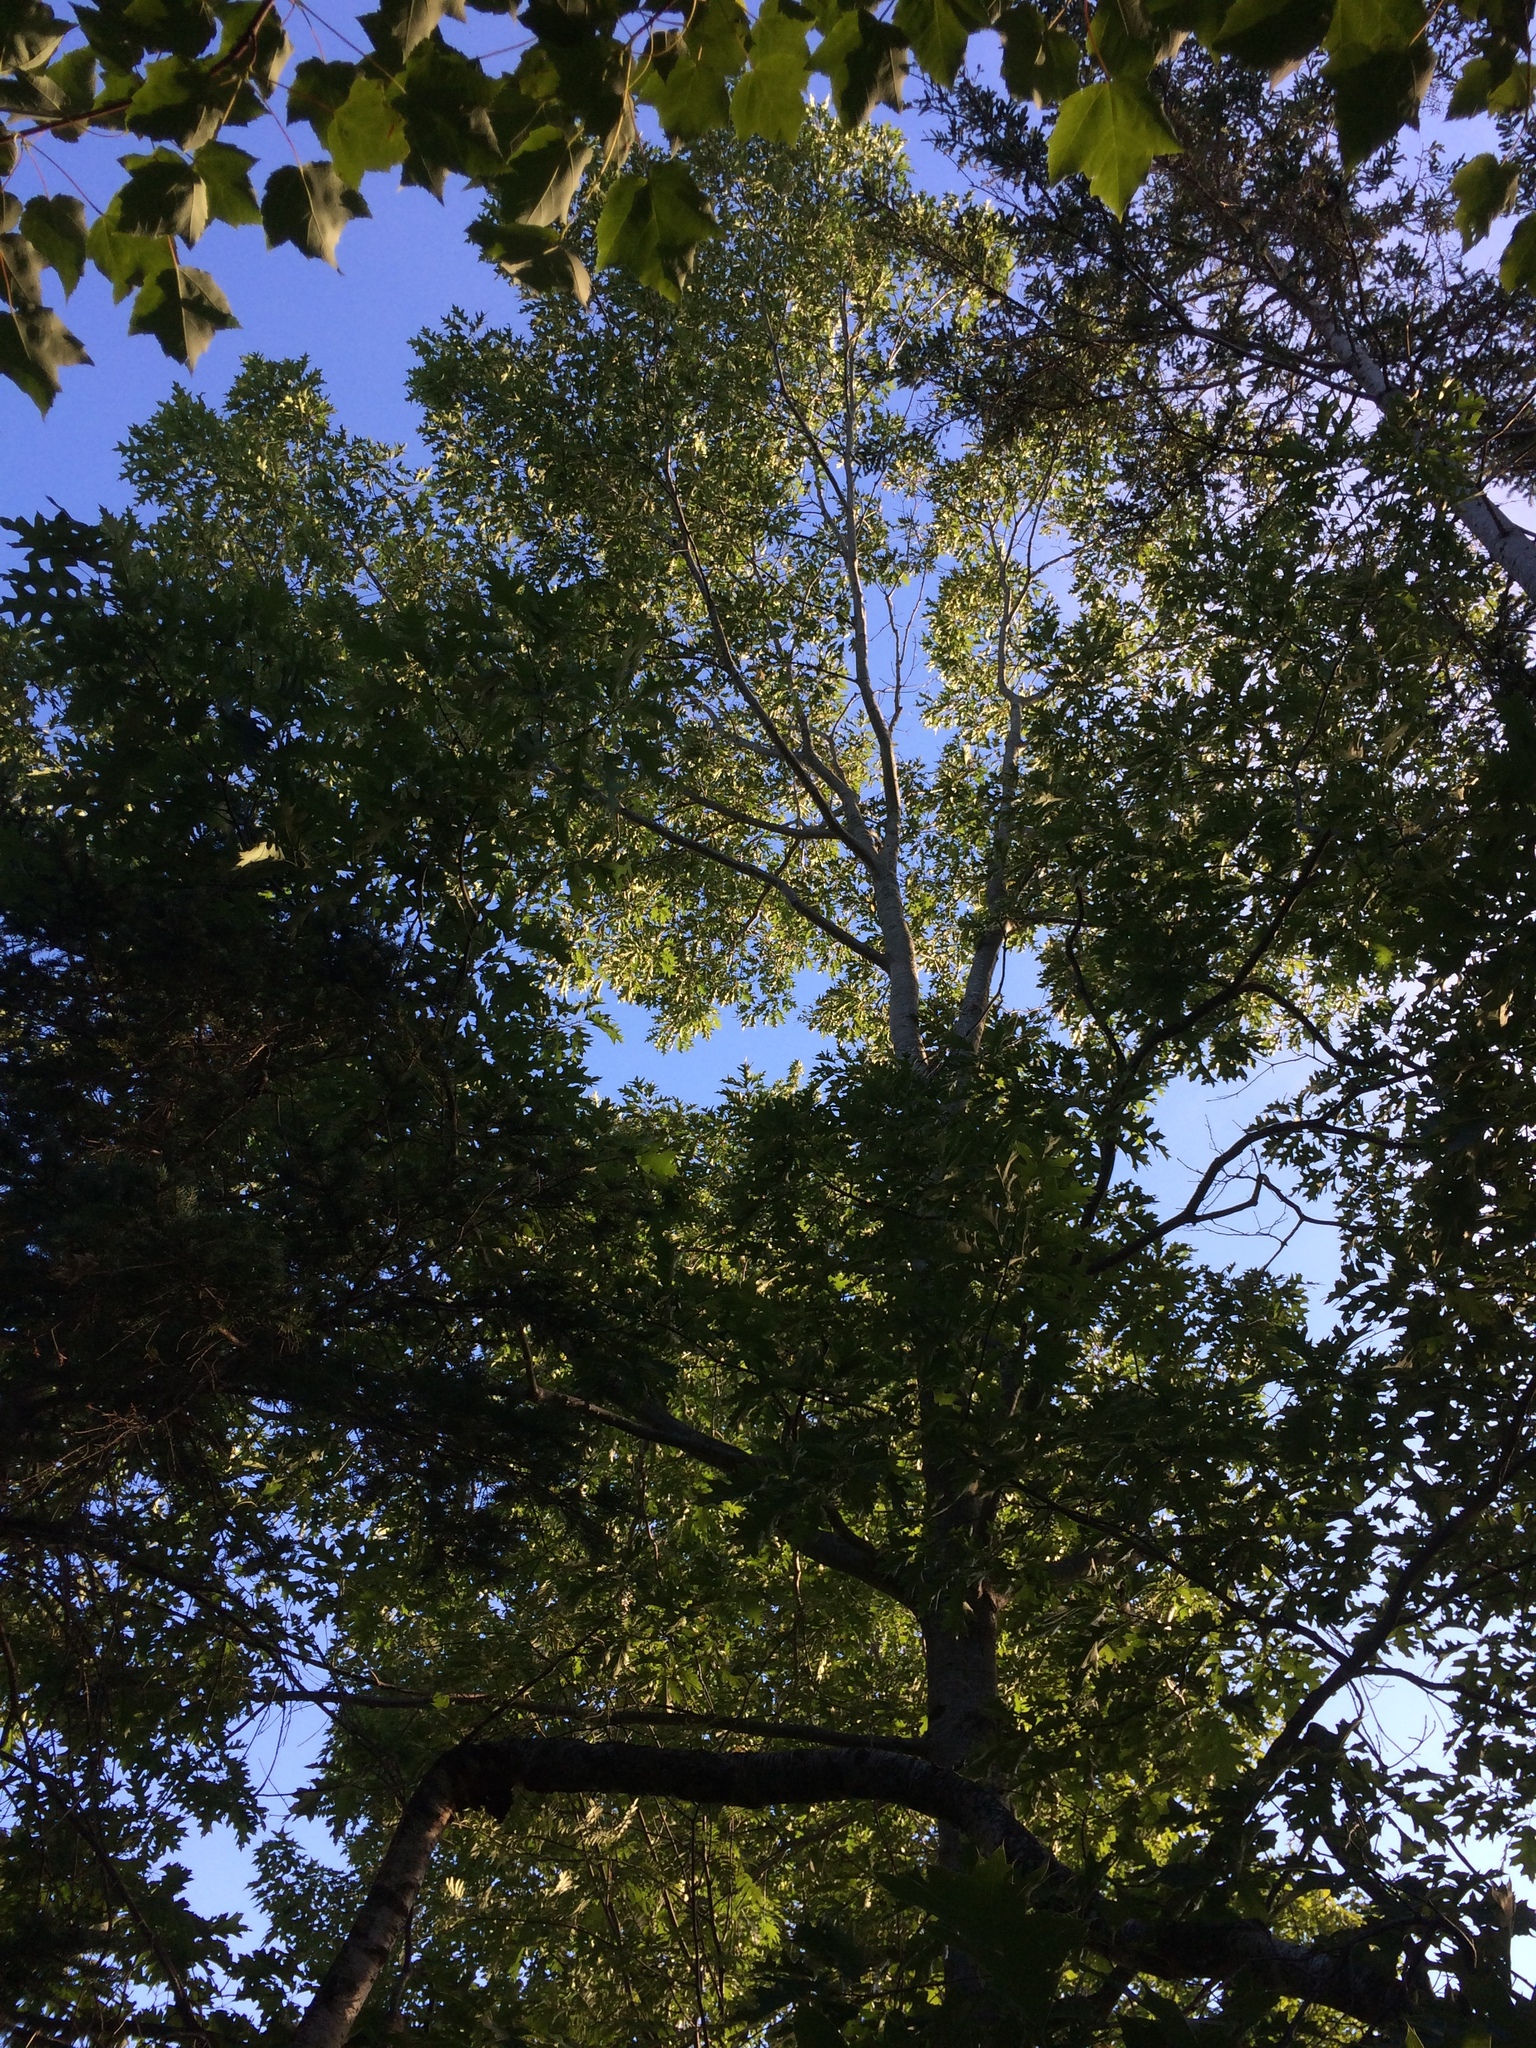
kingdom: Plantae
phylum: Tracheophyta
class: Magnoliopsida
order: Fagales
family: Fagaceae
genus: Quercus
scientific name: Quercus rubra
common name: Red oak
